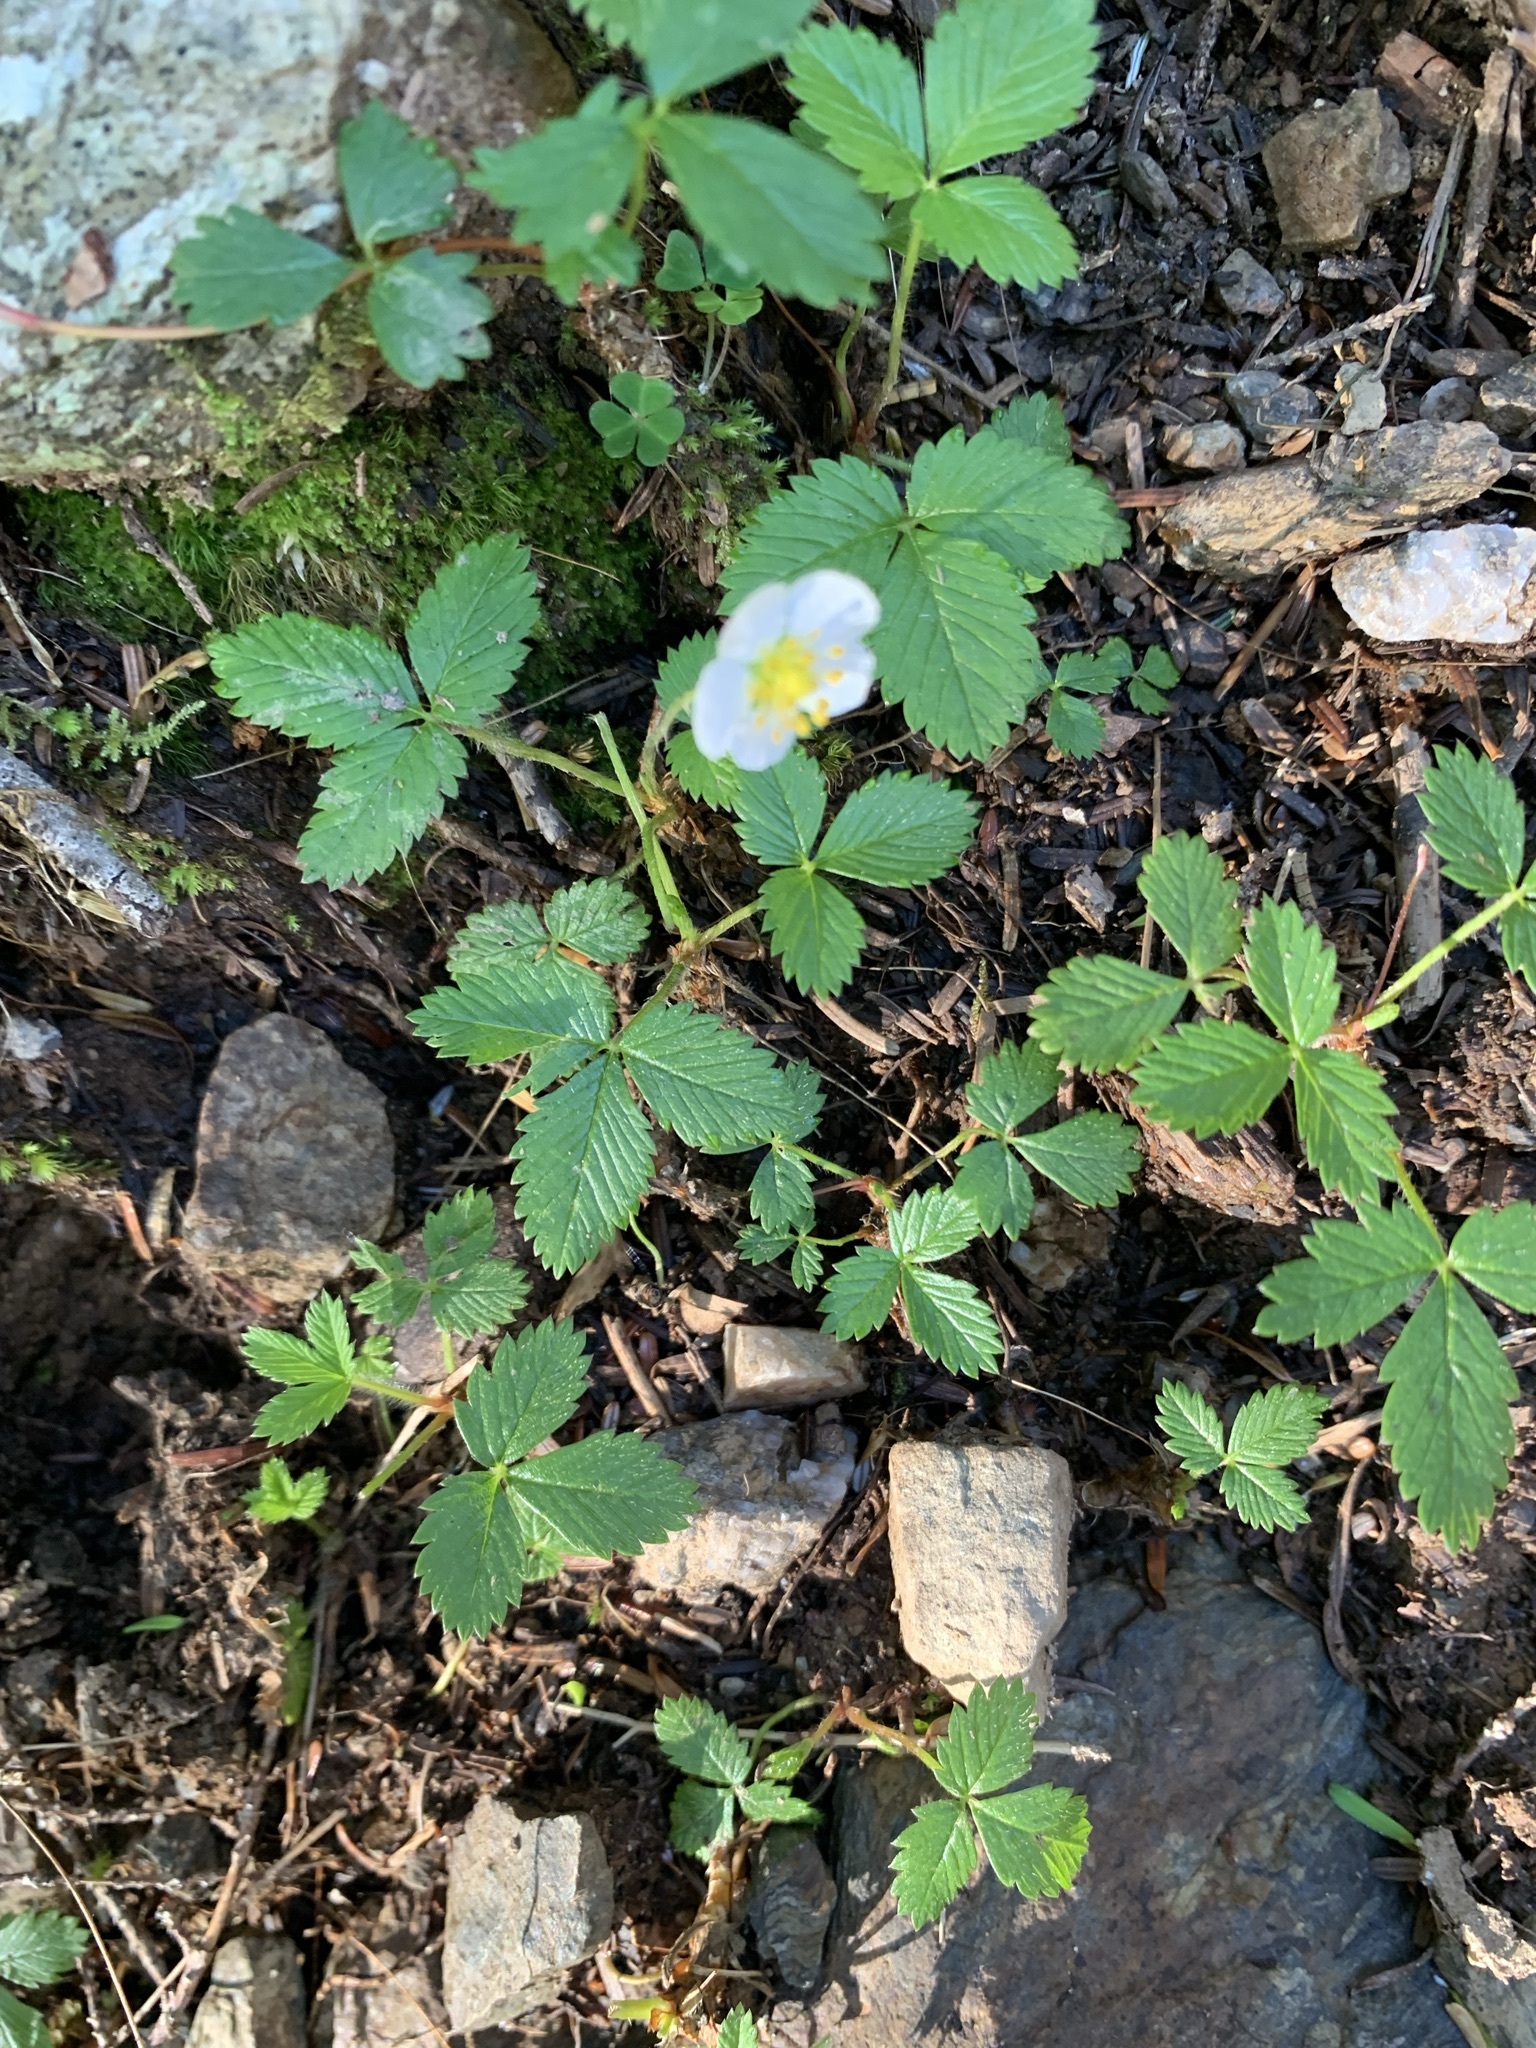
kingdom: Plantae
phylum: Tracheophyta
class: Magnoliopsida
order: Rosales
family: Rosaceae
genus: Fragaria
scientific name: Fragaria nipponica
